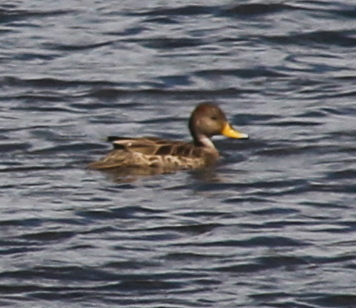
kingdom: Animalia
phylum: Chordata
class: Aves
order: Anseriformes
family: Anatidae
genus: Anas
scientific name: Anas georgica
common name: Yellow-billed pintail
